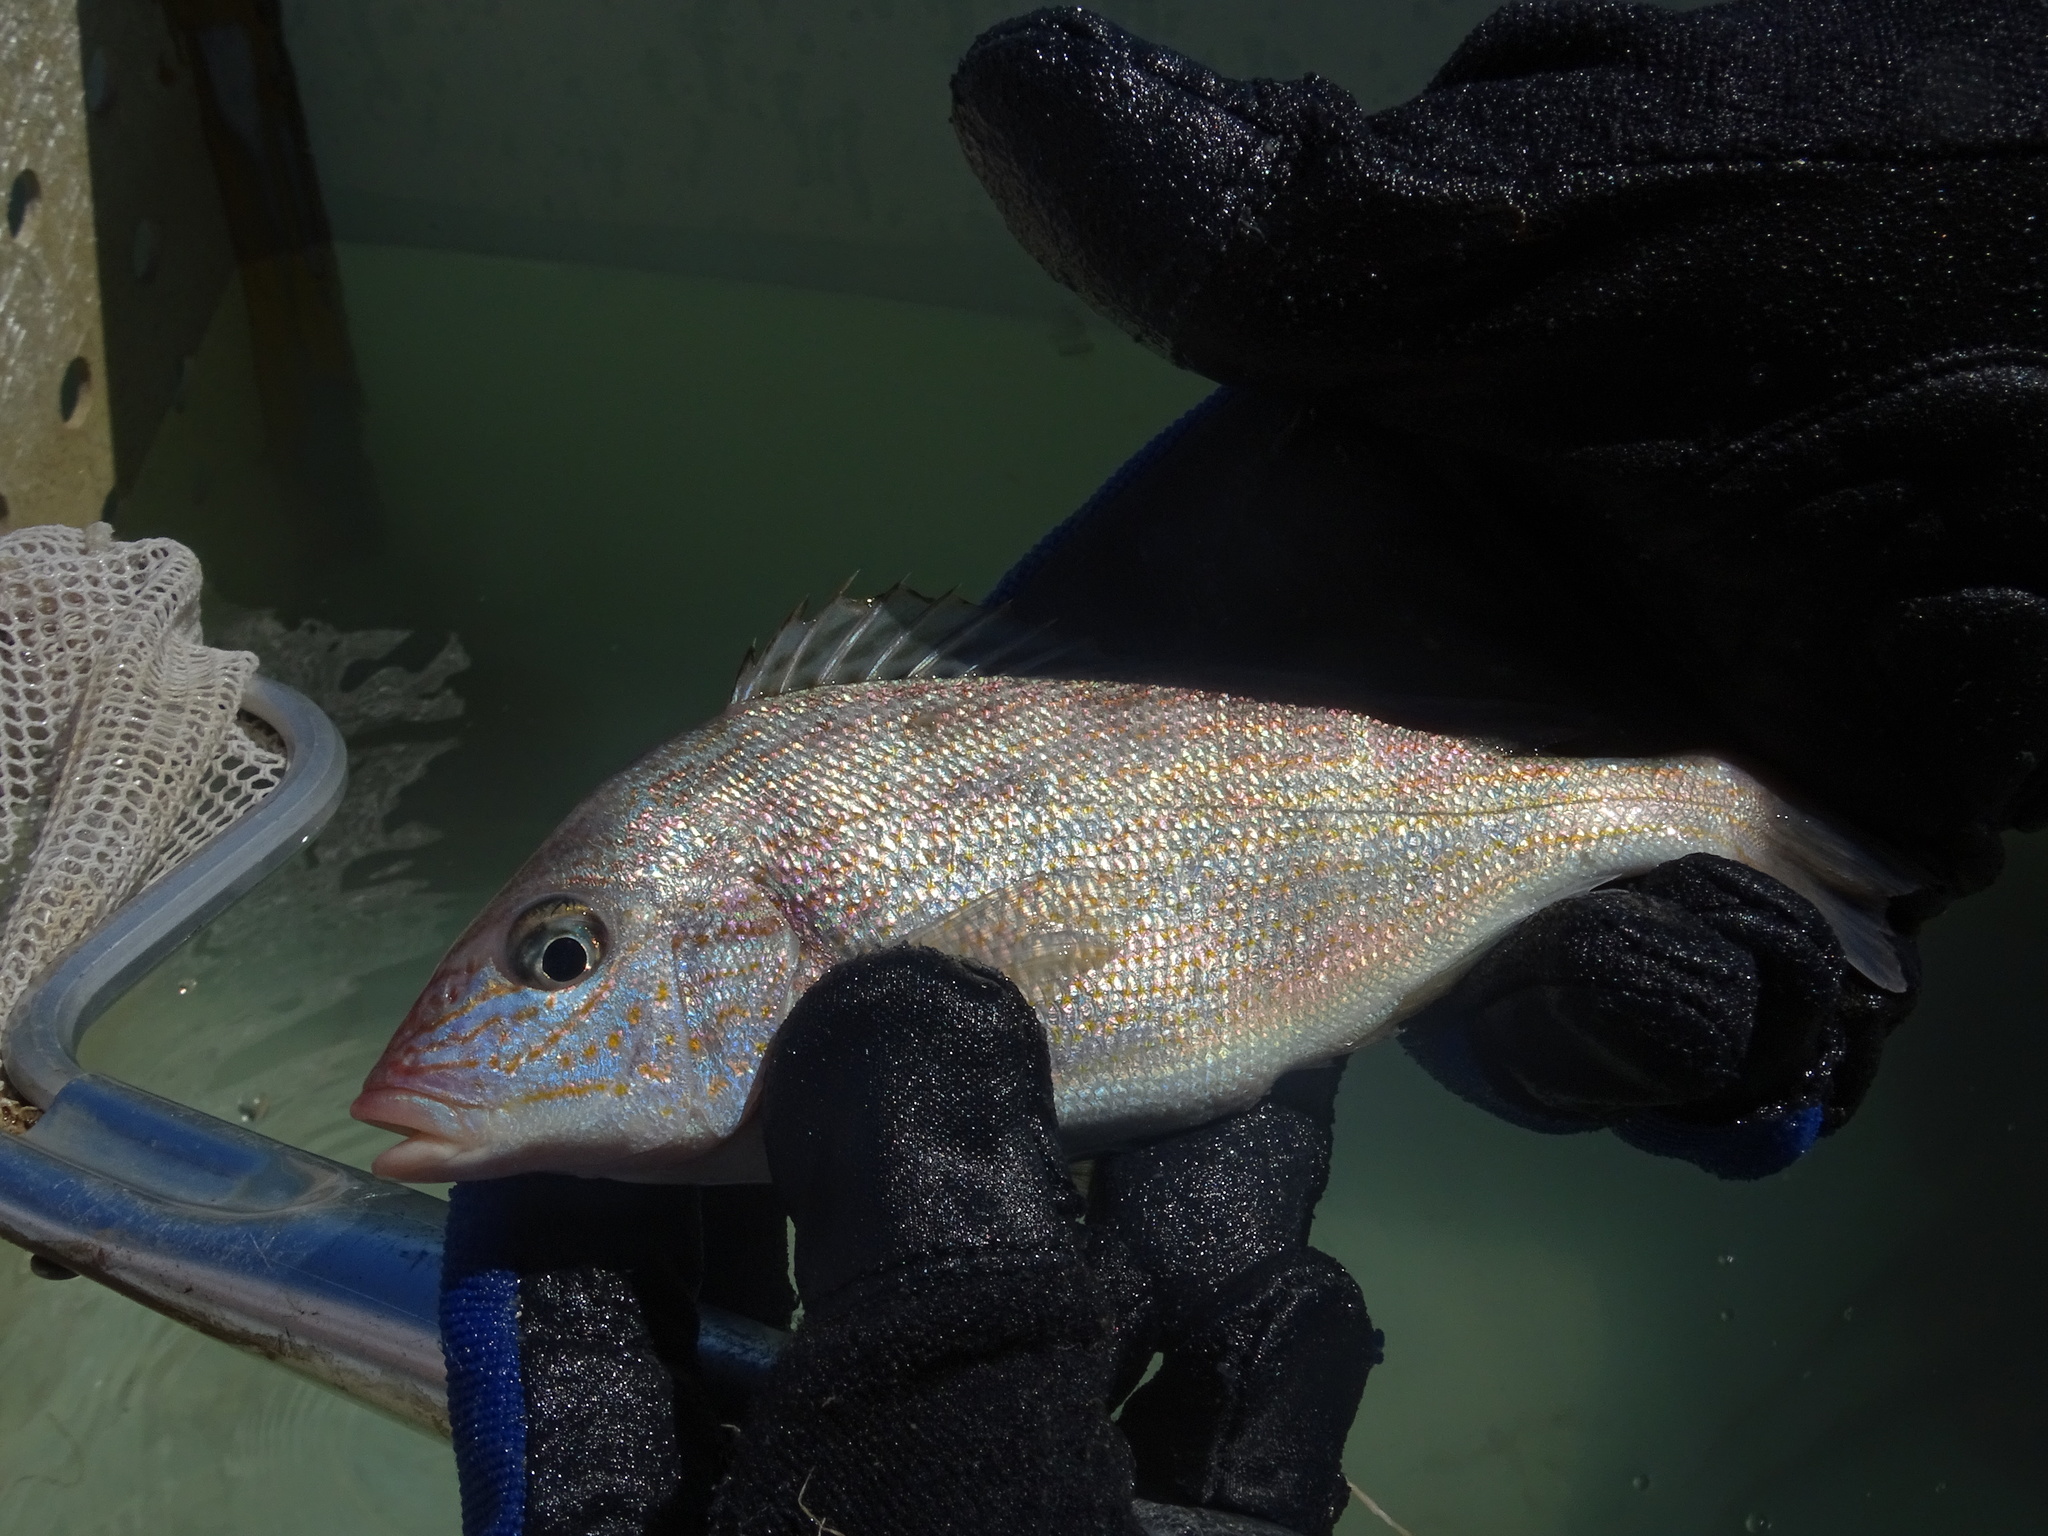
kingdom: Animalia
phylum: Chordata
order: Perciformes
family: Haemulidae
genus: Orthopristis
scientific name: Orthopristis chrysoptera
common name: Pigfish
